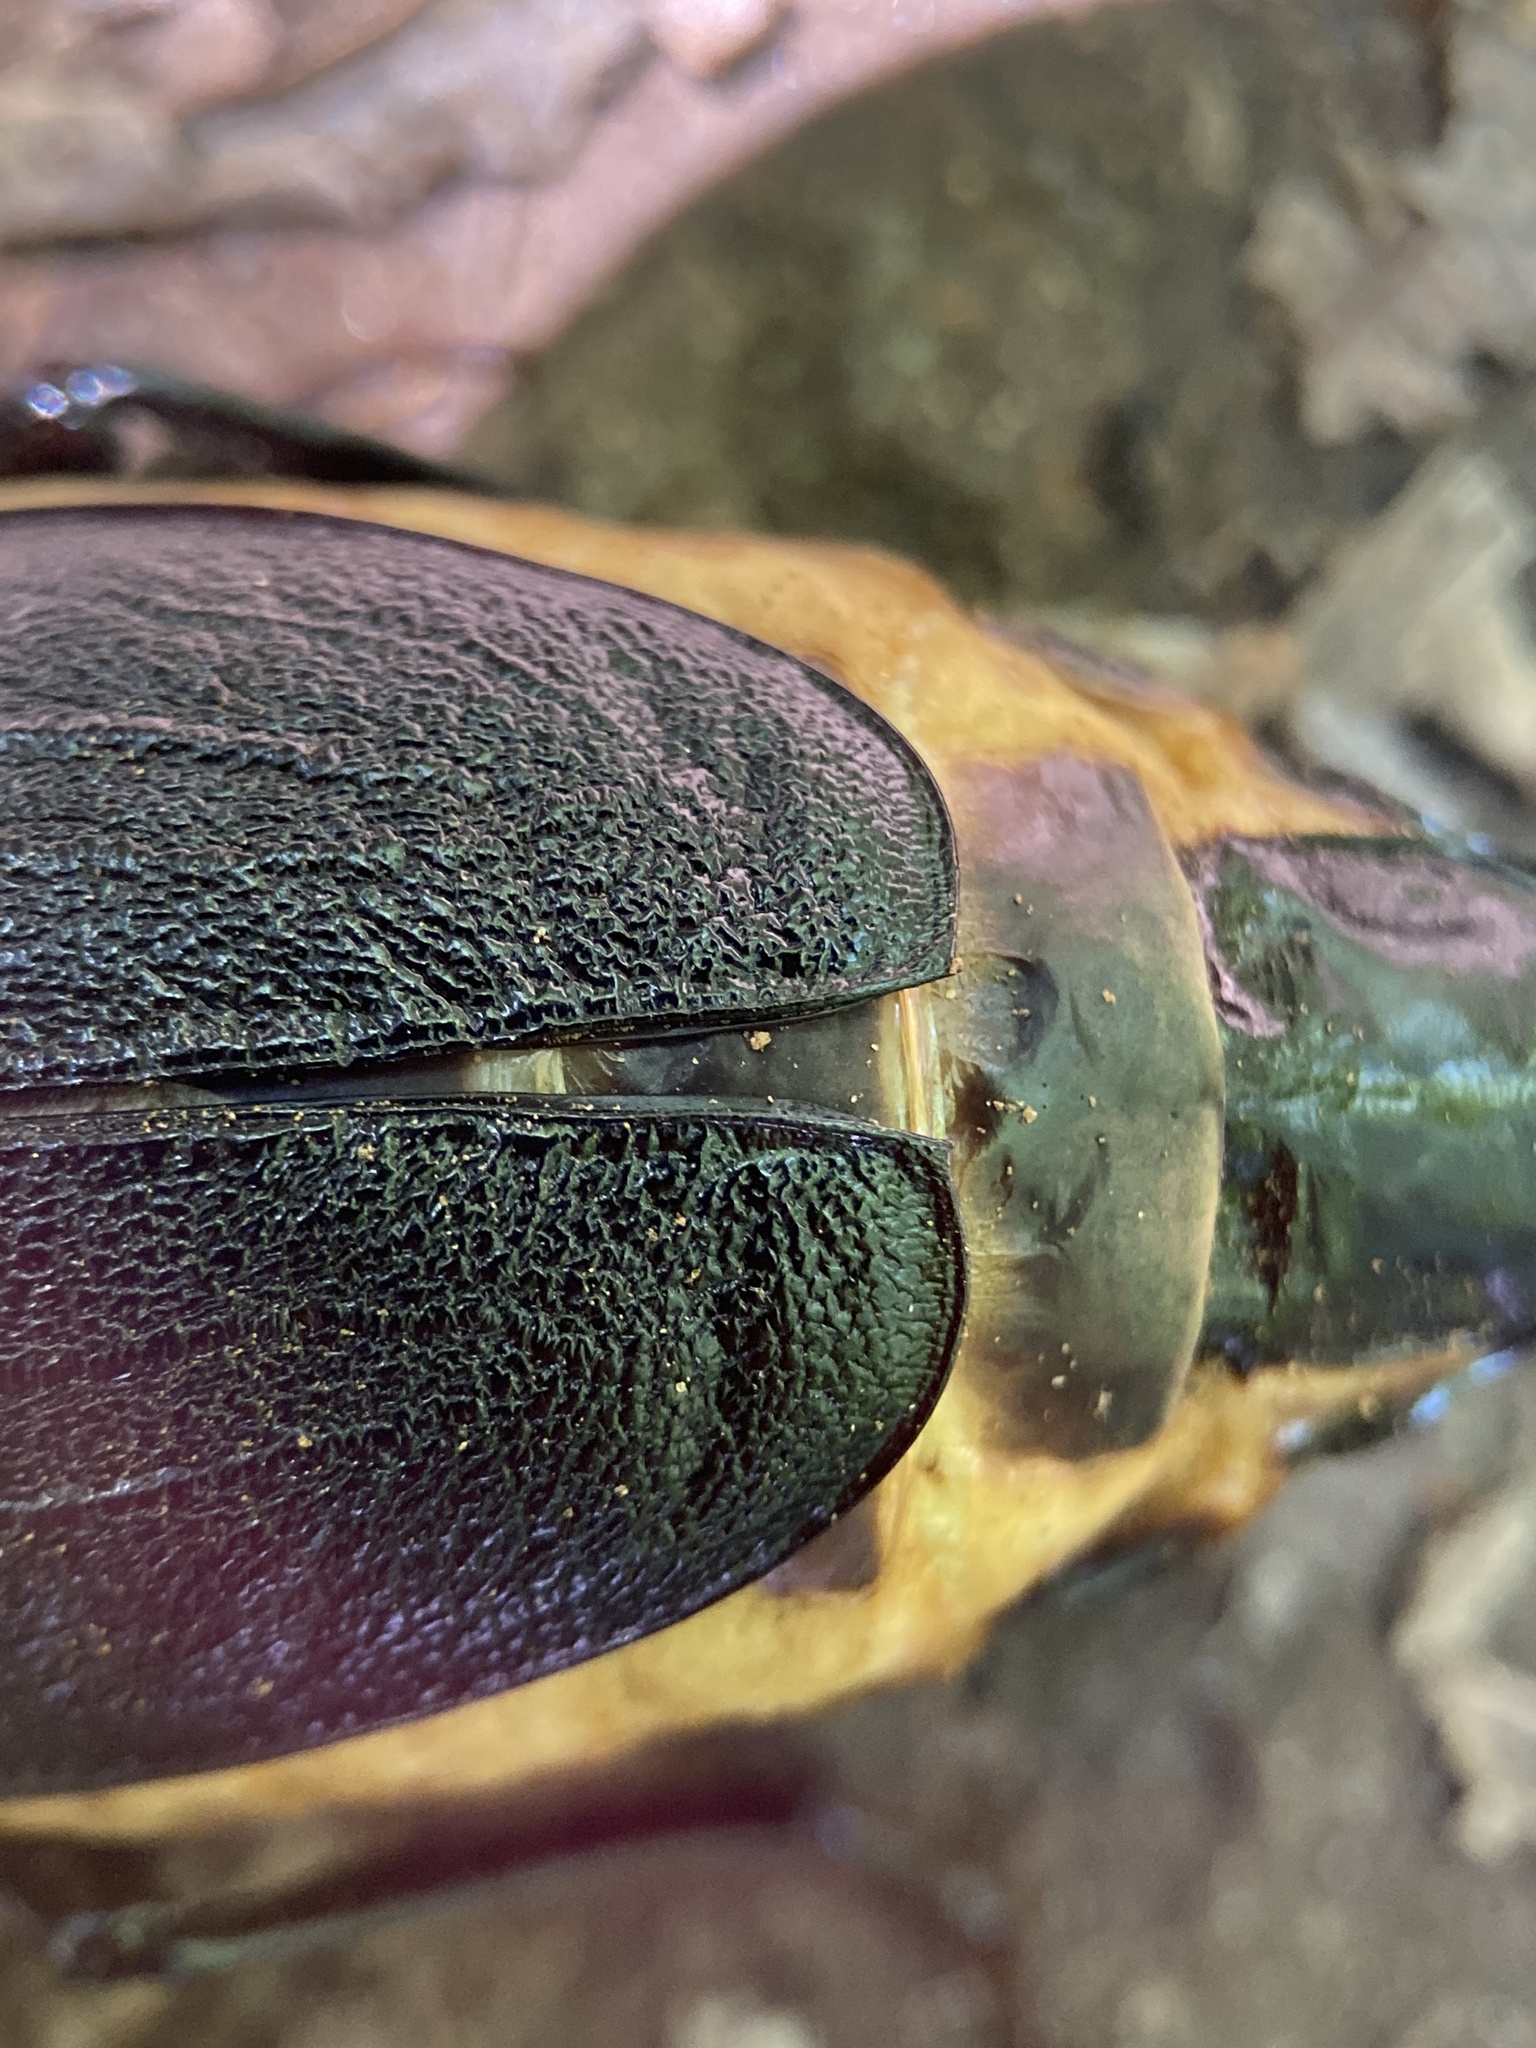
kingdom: Animalia
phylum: Arthropoda
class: Insecta
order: Coleoptera
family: Cerambycidae
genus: Prionus
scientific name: Prionus laticollis
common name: Broad necked prionus
